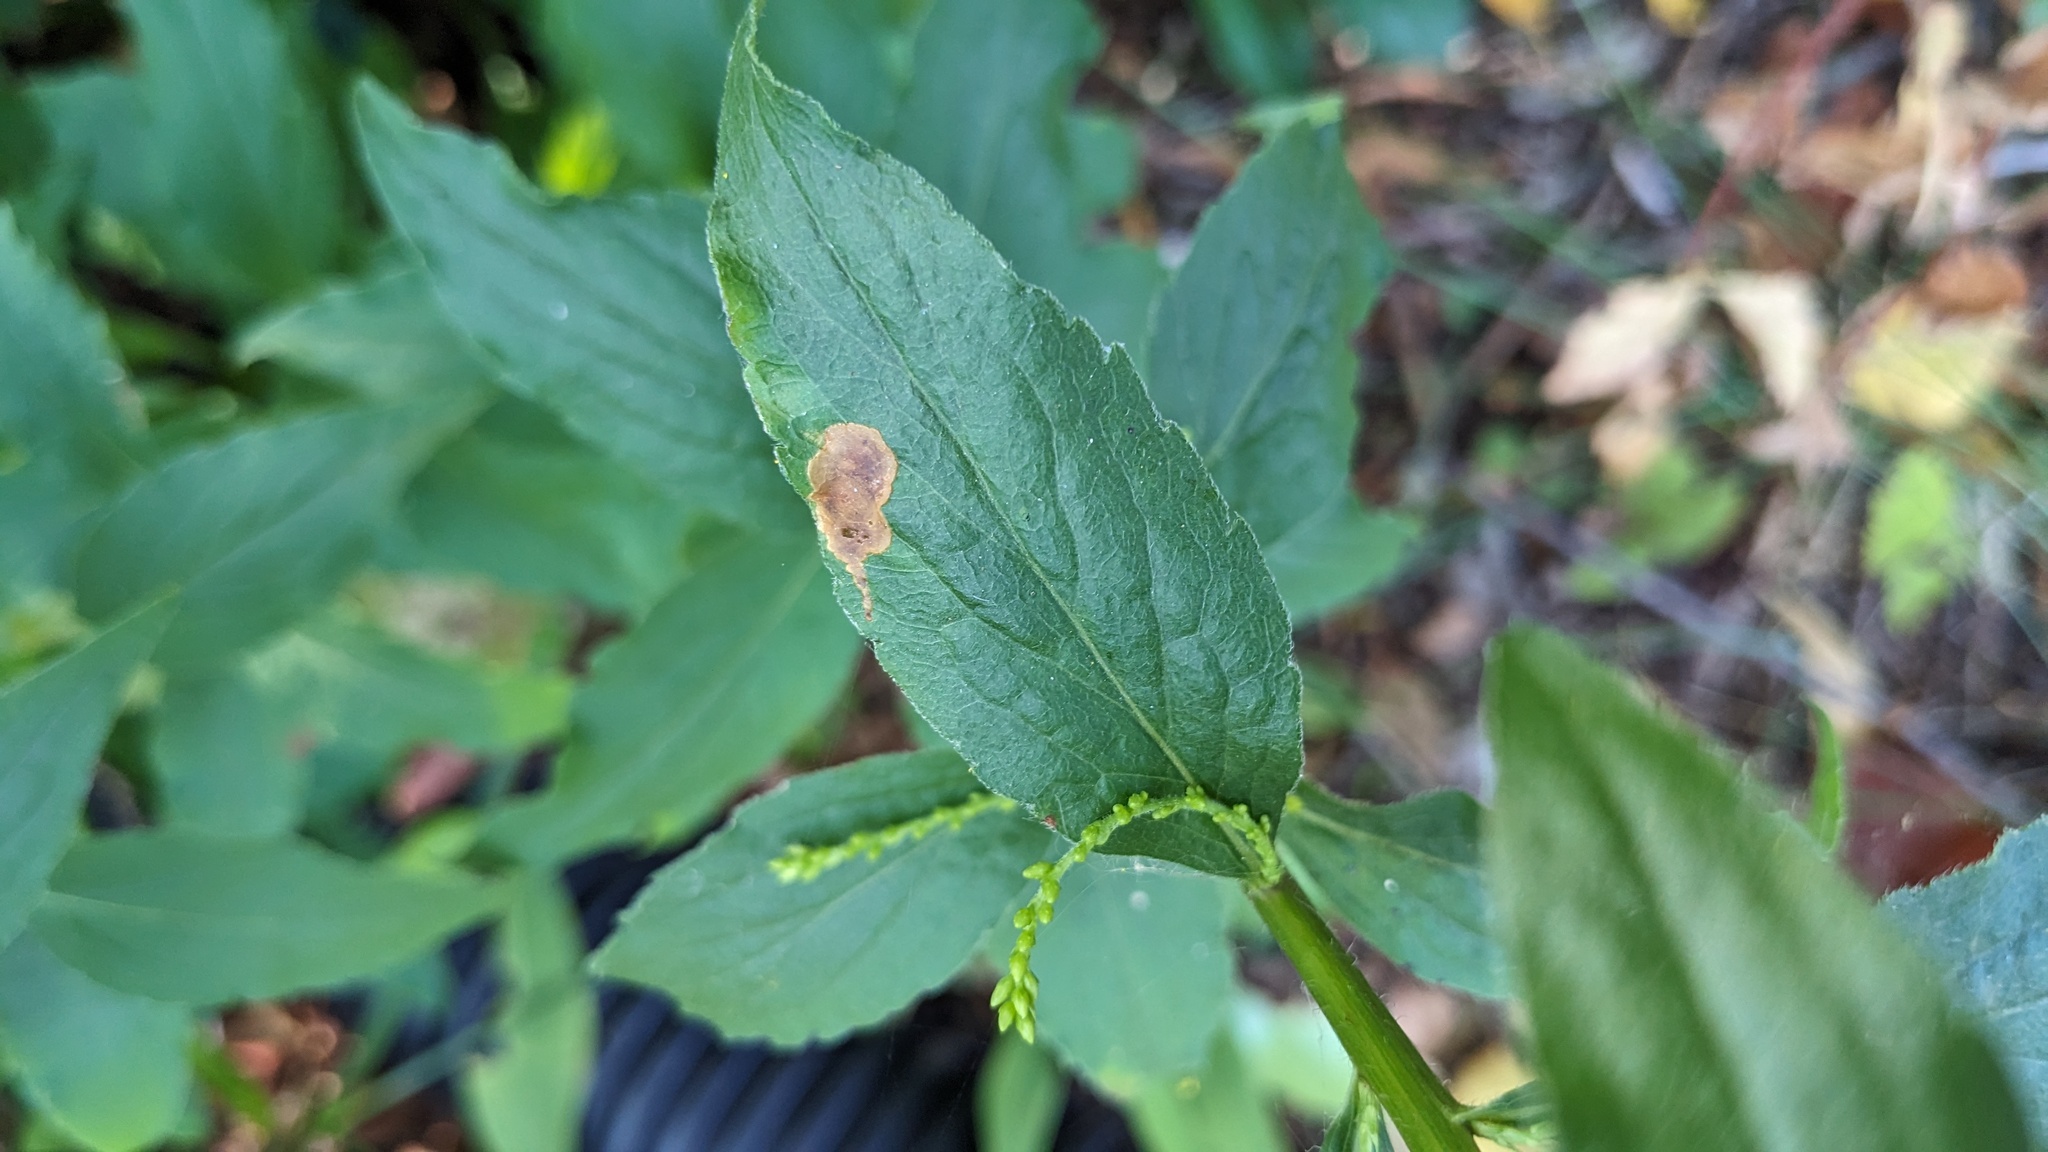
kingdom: Animalia
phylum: Arthropoda
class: Insecta
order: Diptera
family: Agromyzidae
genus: Nemorimyza
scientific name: Nemorimyza posticata
